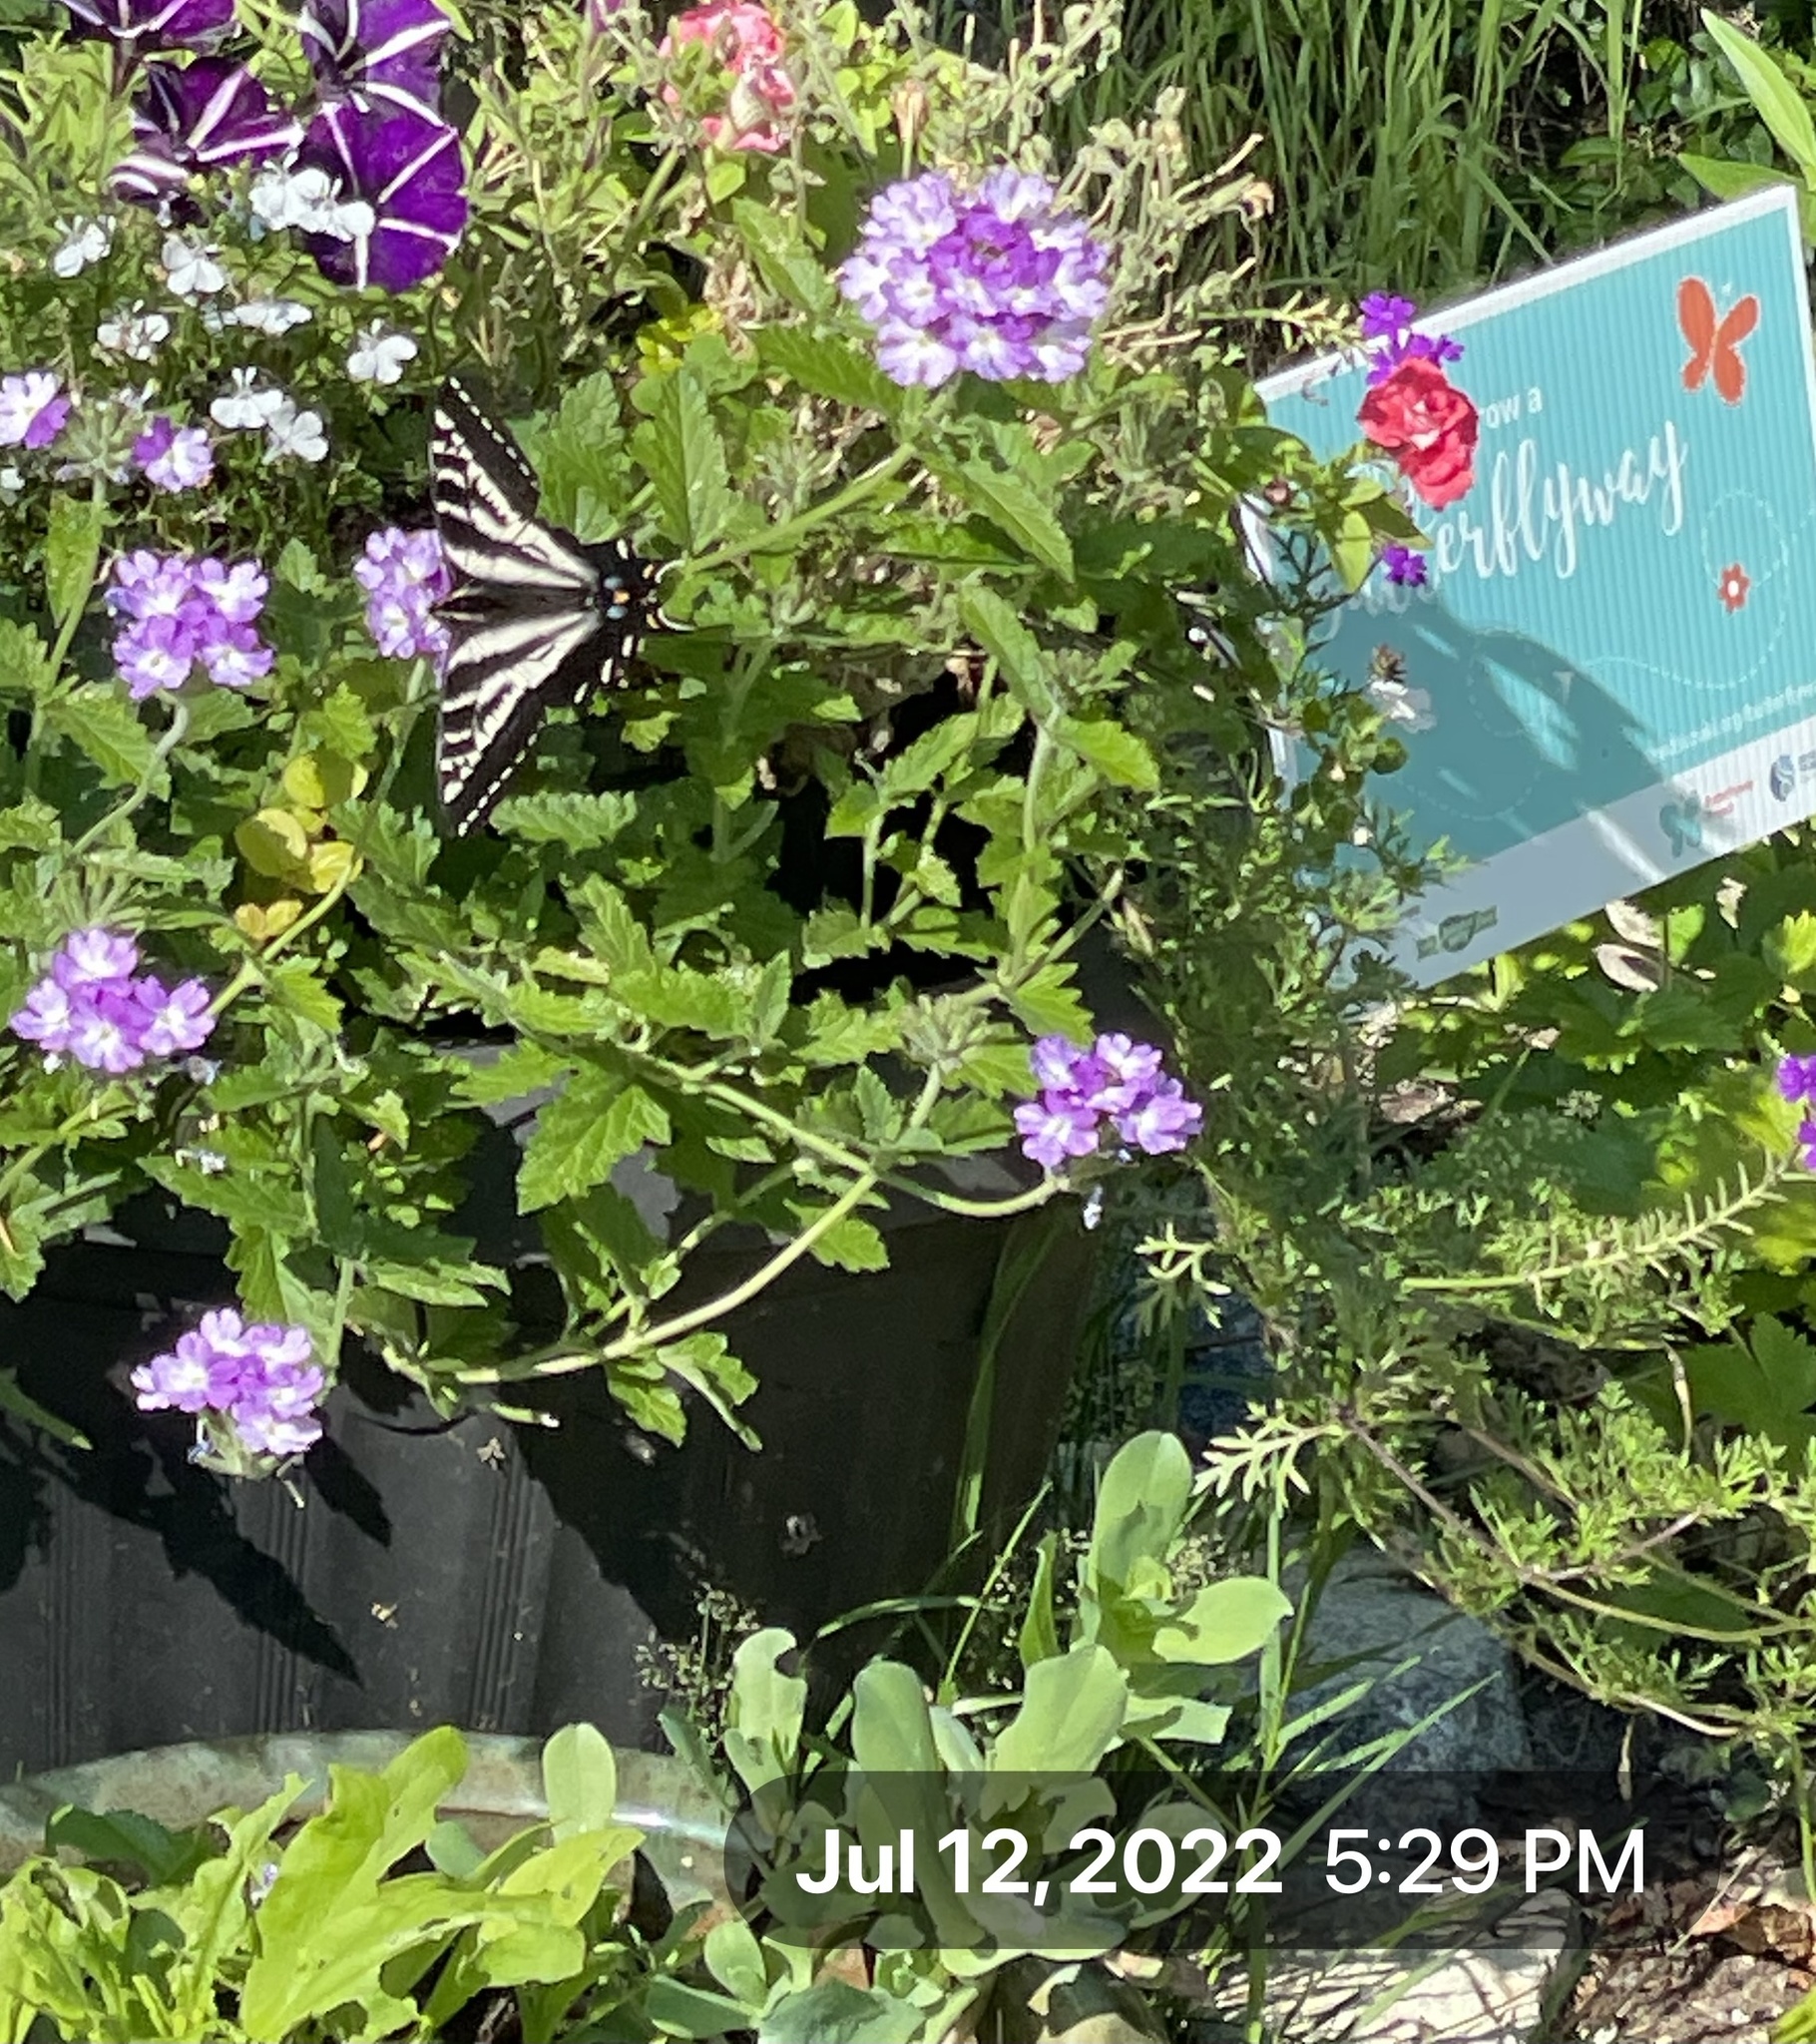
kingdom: Animalia
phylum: Arthropoda
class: Insecta
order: Lepidoptera
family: Papilionidae
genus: Papilio
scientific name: Papilio eurymedon
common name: Pale tiger swallowtail
